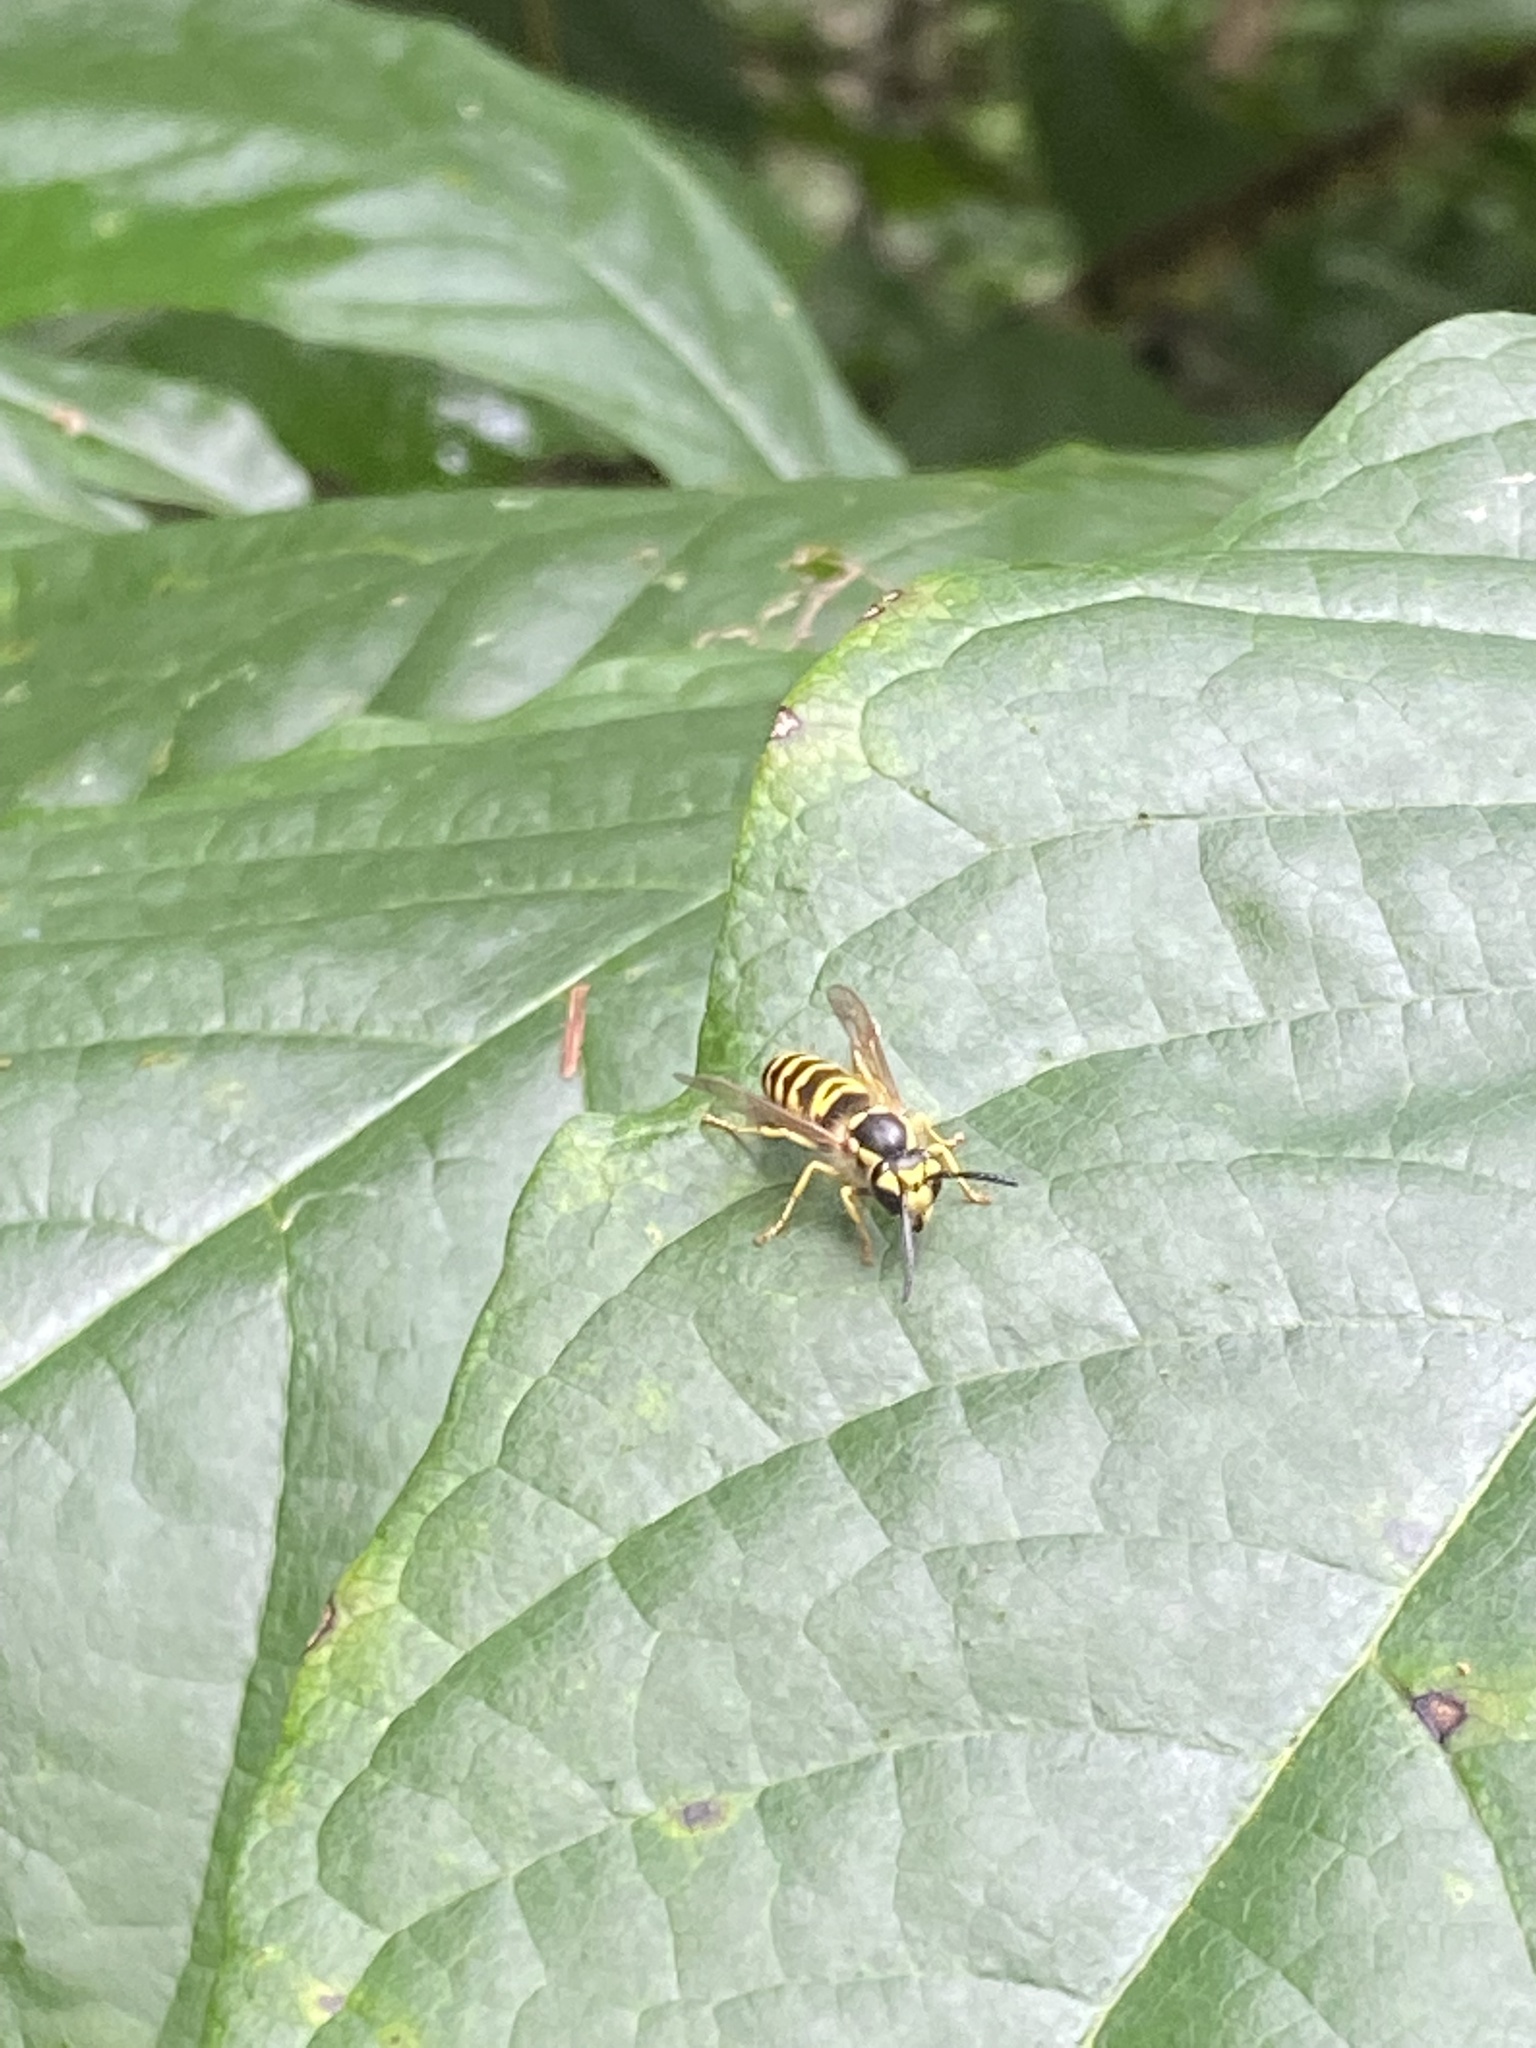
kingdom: Animalia
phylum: Arthropoda
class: Insecta
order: Hymenoptera
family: Vespidae
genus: Vespula
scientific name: Vespula maculifrons
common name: Eastern yellowjacket
